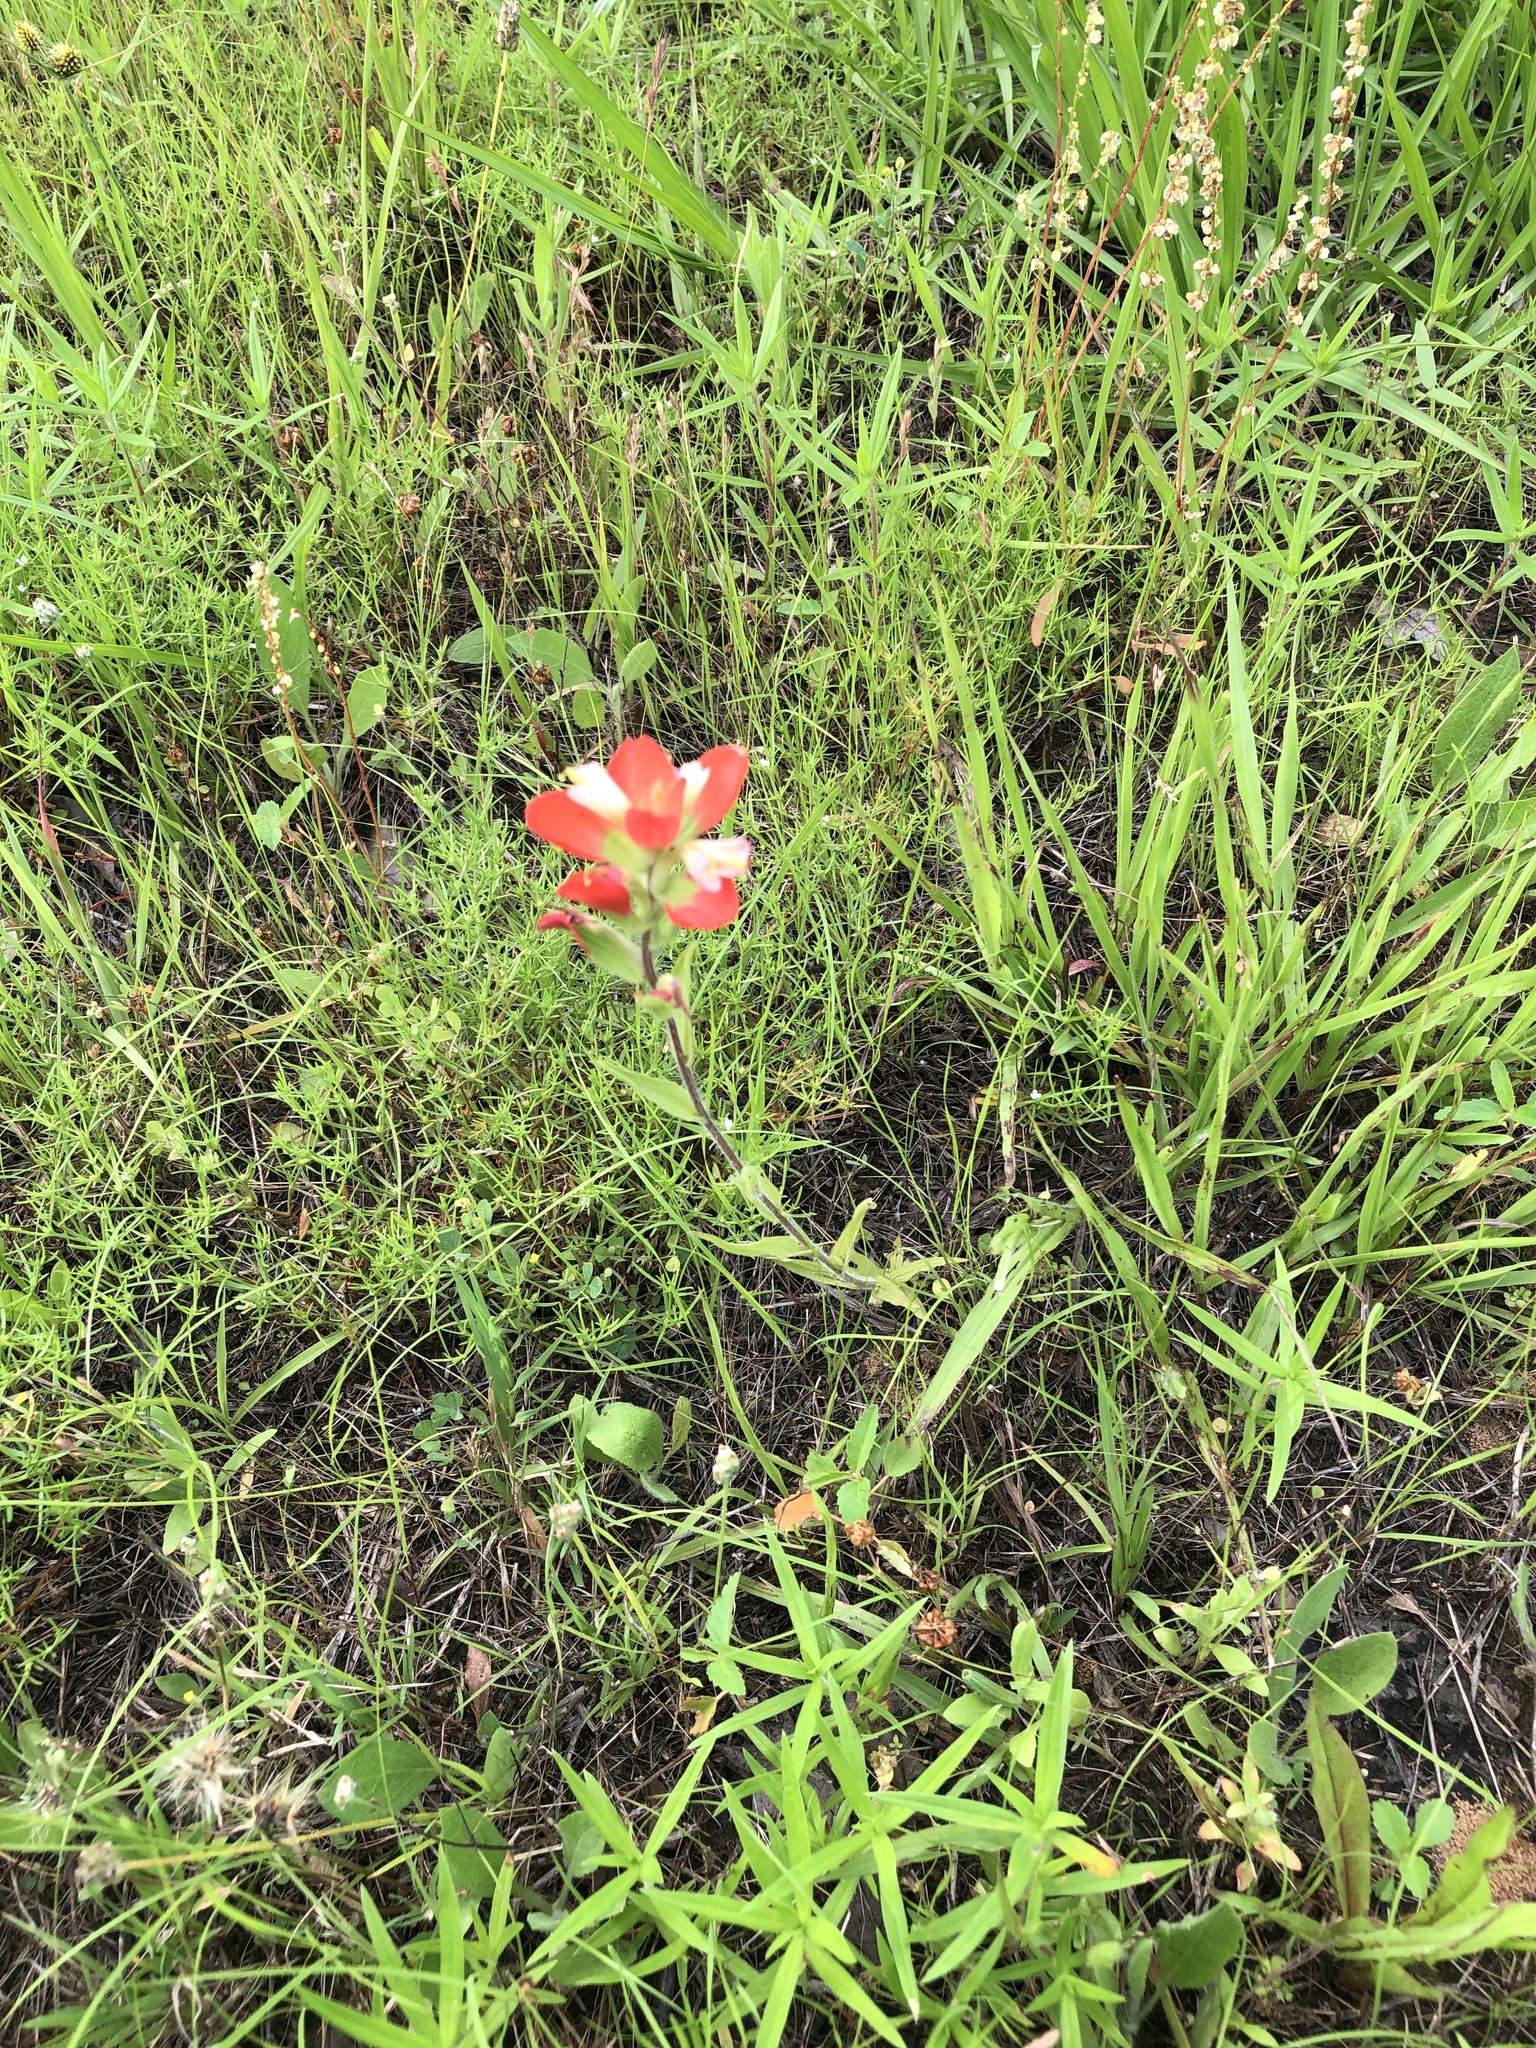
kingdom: Plantae
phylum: Tracheophyta
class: Magnoliopsida
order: Lamiales
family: Orobanchaceae
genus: Castilleja
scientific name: Castilleja indivisa
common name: Texas paintbrush
